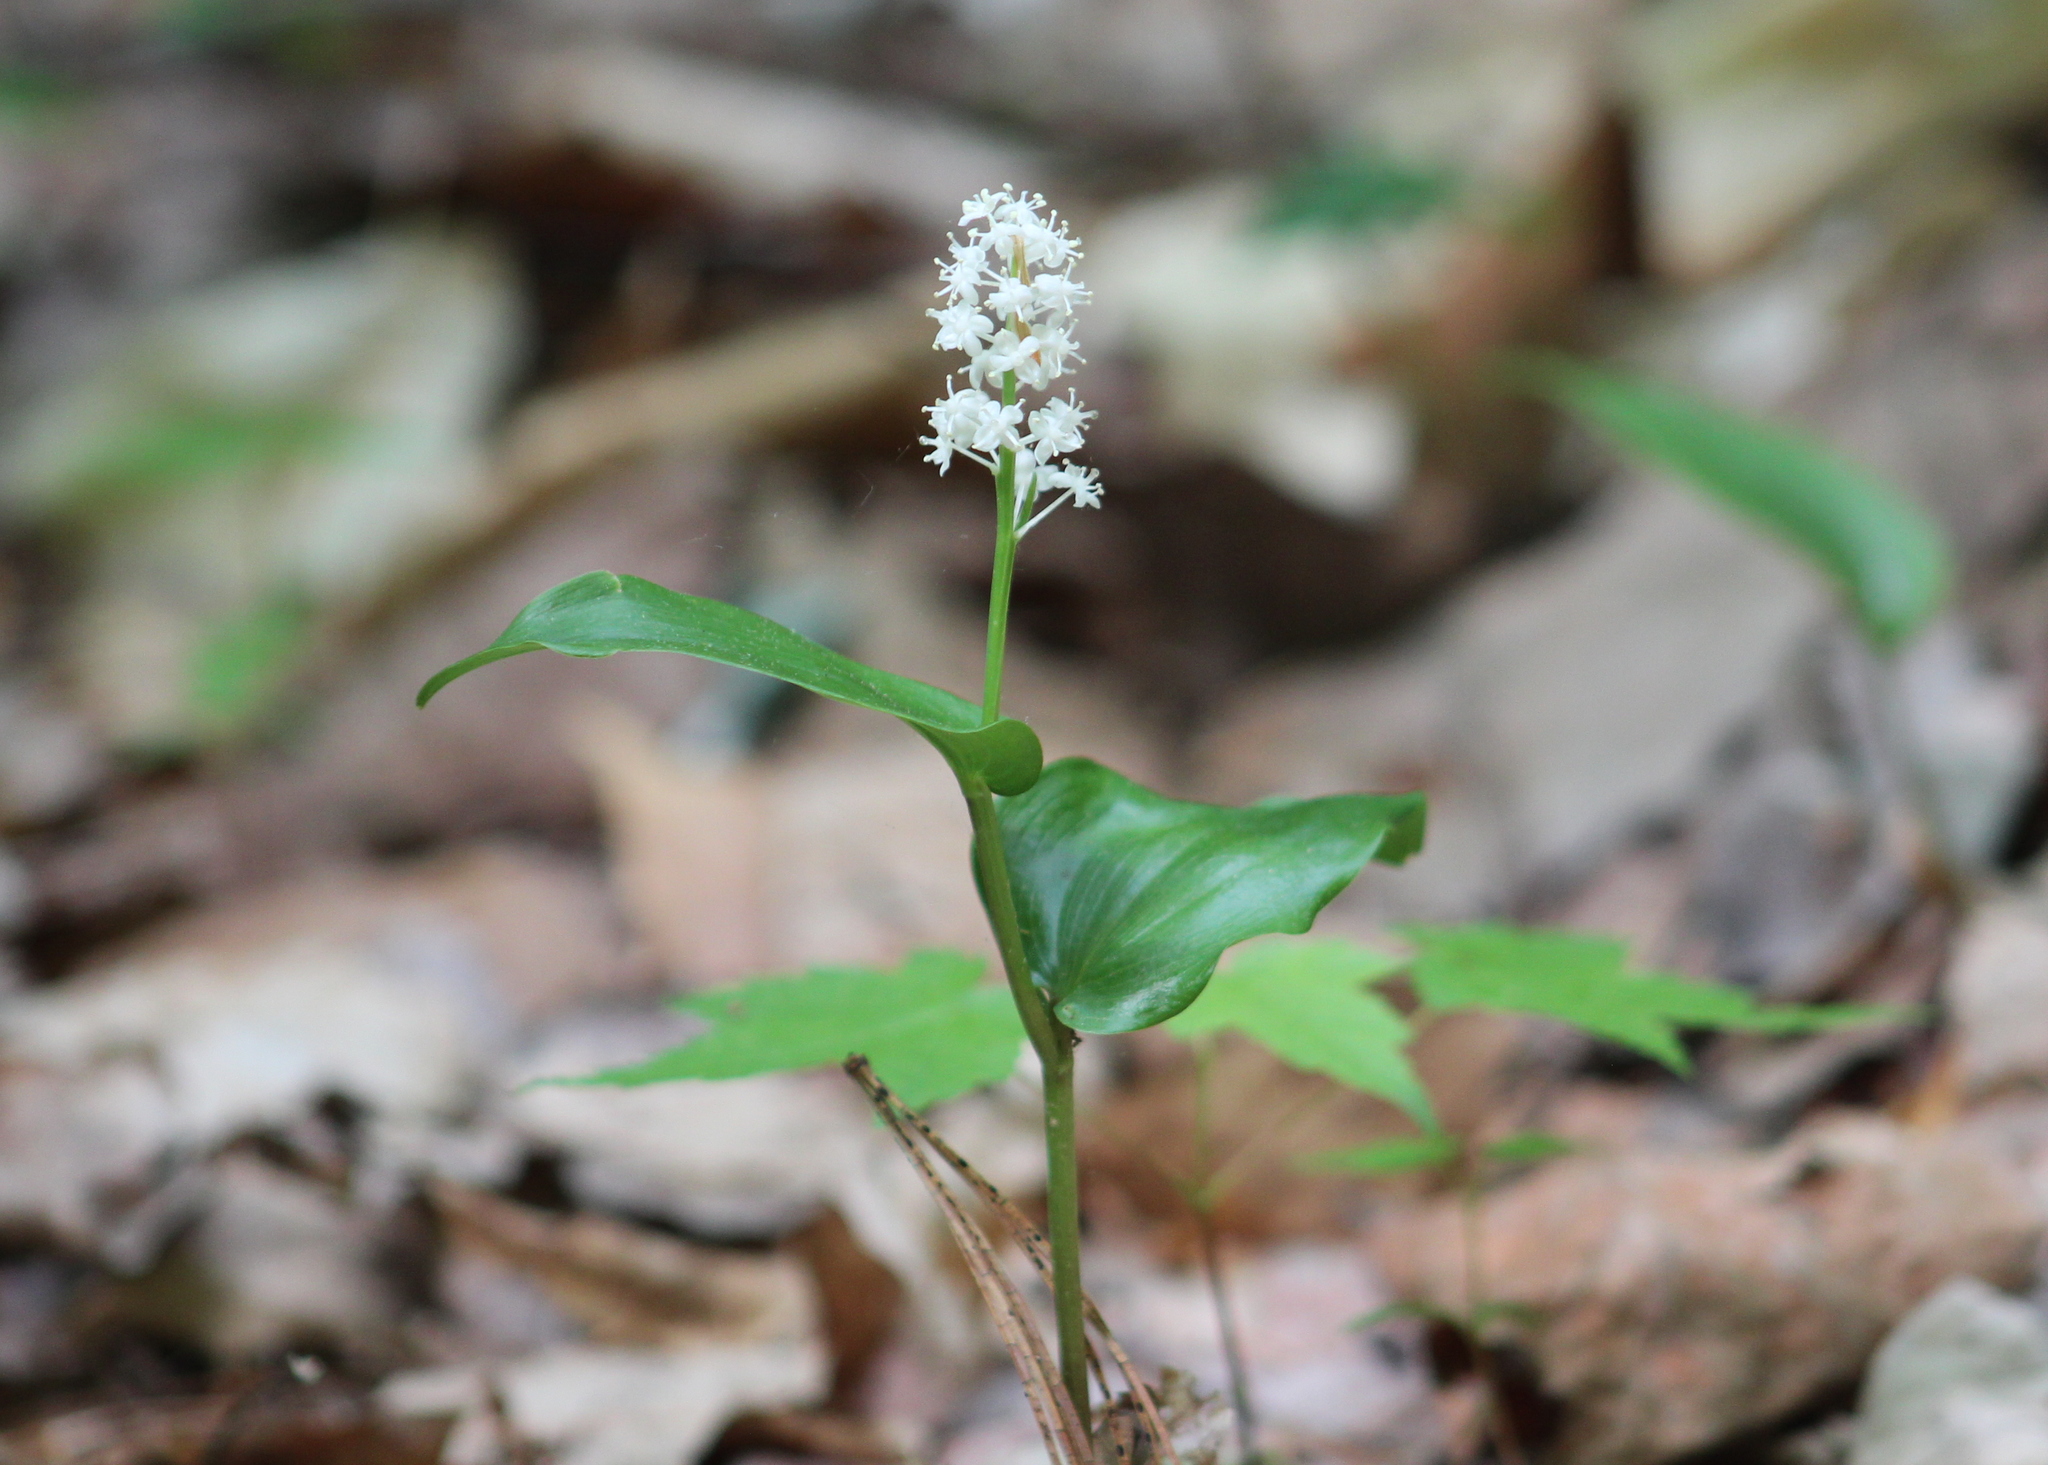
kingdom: Plantae
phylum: Tracheophyta
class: Liliopsida
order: Asparagales
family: Asparagaceae
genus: Maianthemum
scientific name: Maianthemum canadense
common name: False lily-of-the-valley
